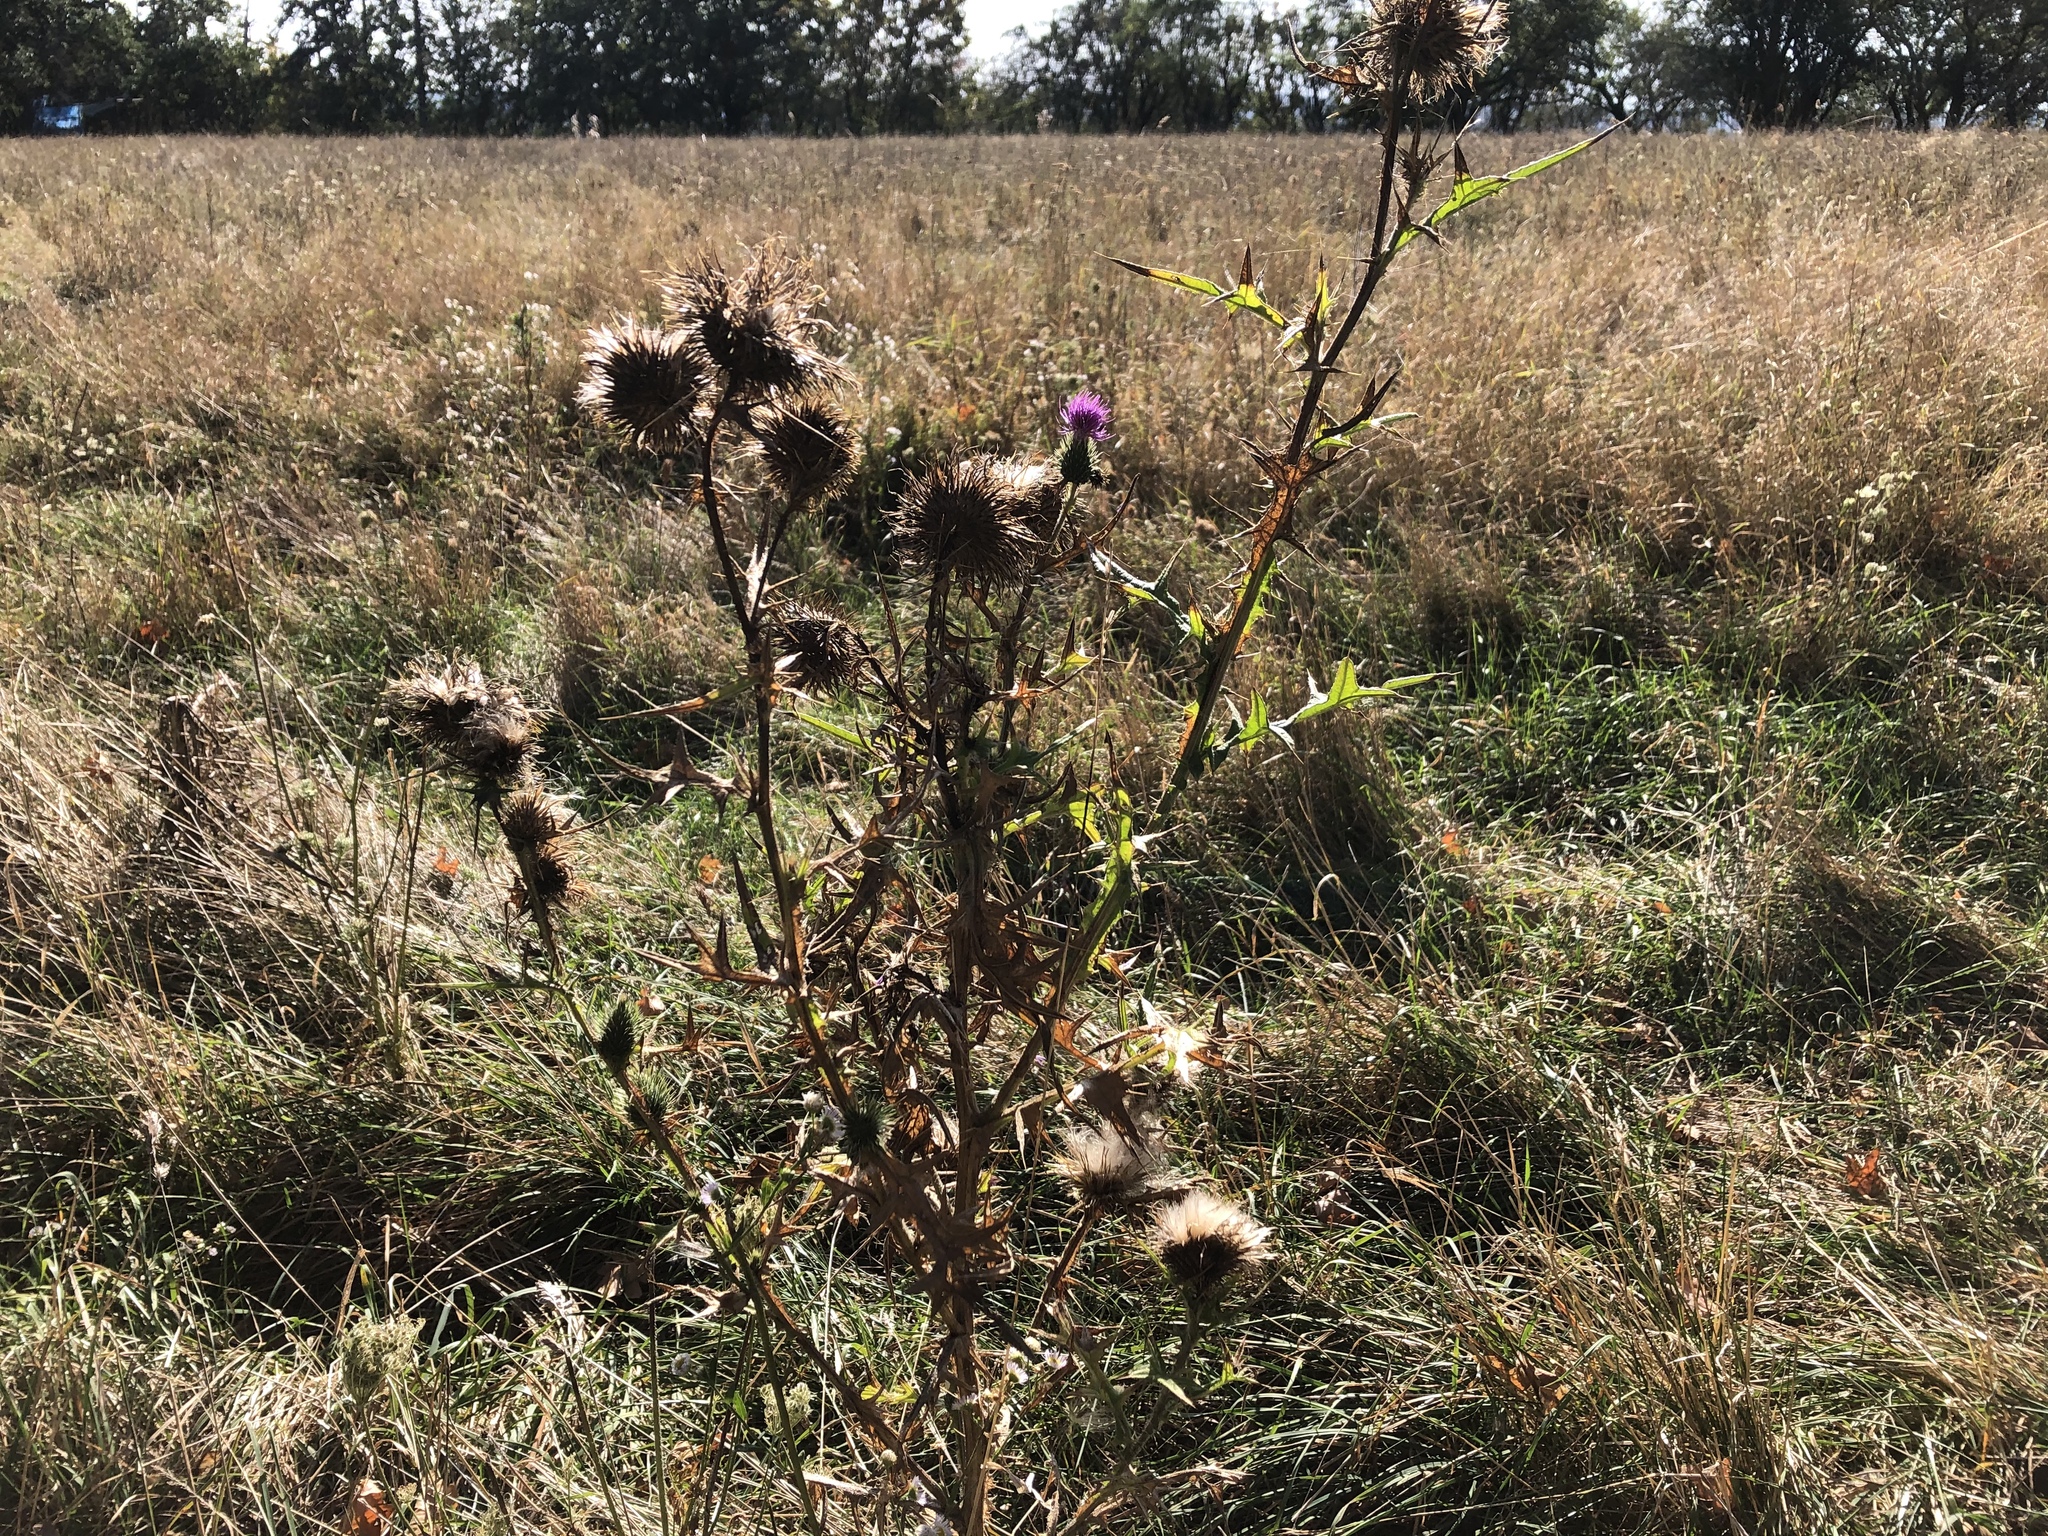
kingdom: Plantae
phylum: Tracheophyta
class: Magnoliopsida
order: Asterales
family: Asteraceae
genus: Cirsium
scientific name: Cirsium vulgare
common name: Bull thistle
